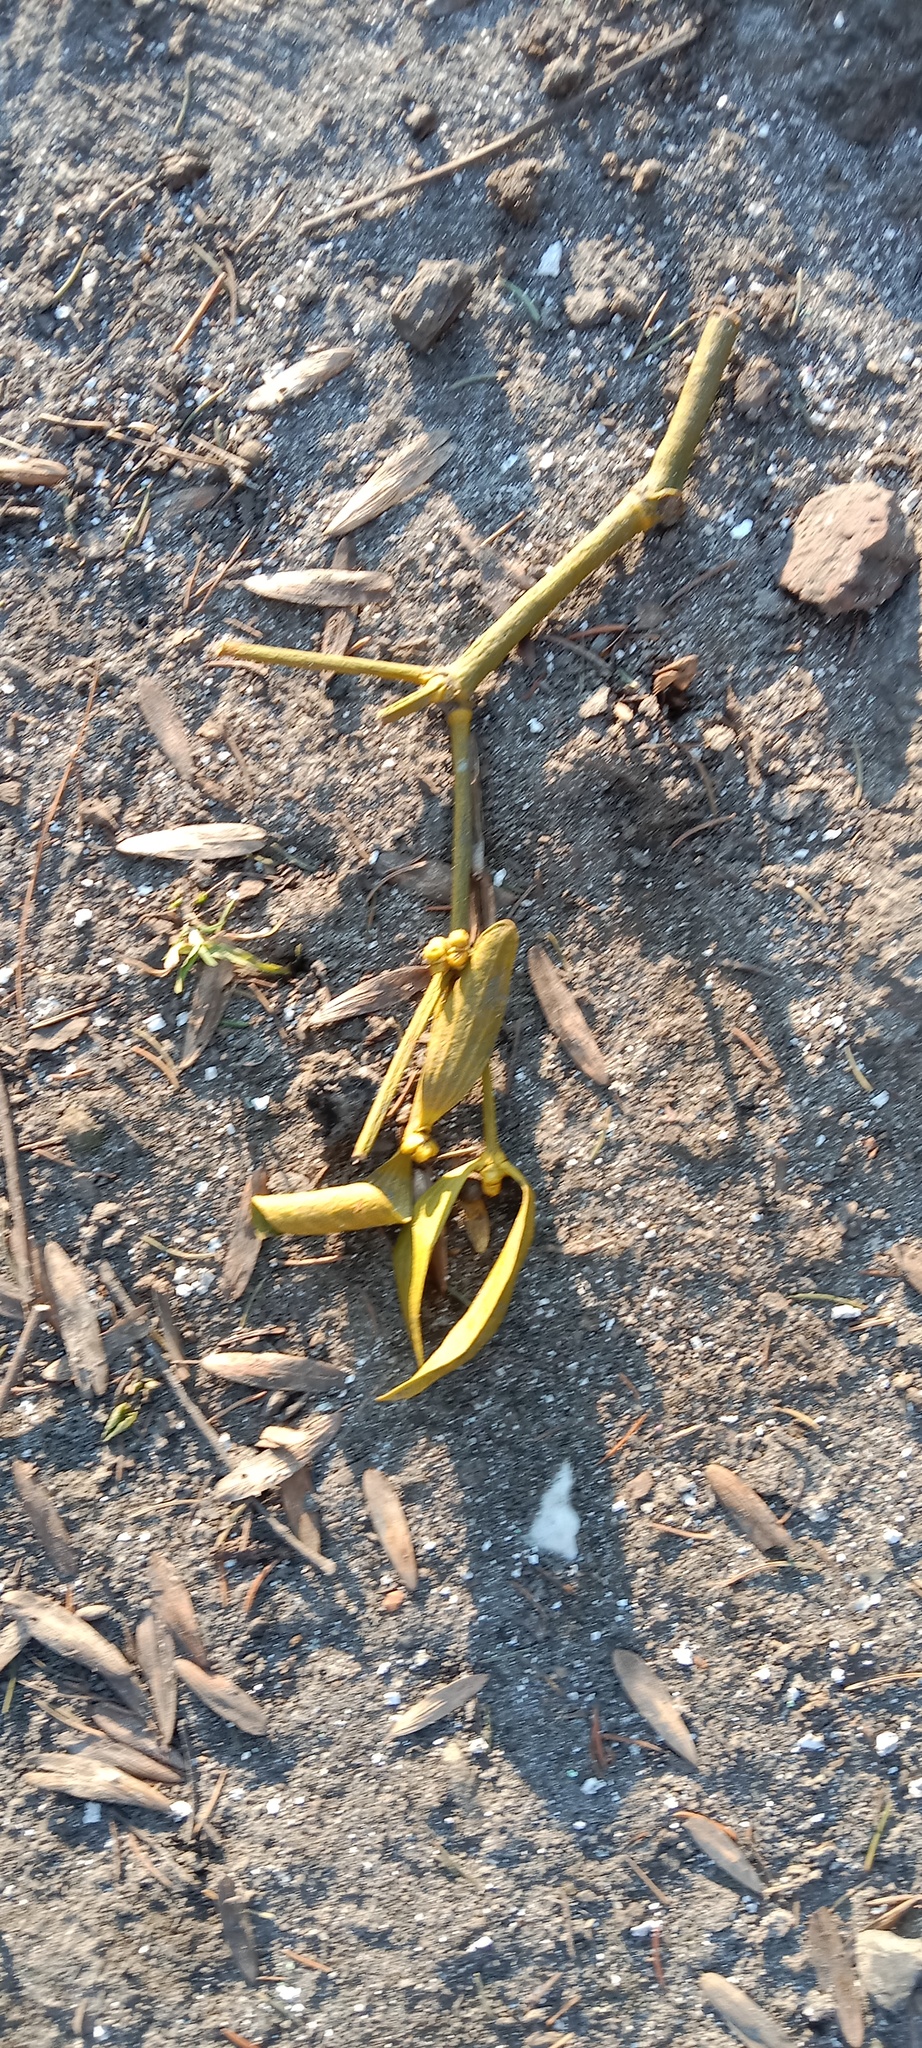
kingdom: Plantae
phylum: Tracheophyta
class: Magnoliopsida
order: Santalales
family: Viscaceae
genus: Viscum
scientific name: Viscum album
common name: Mistletoe
